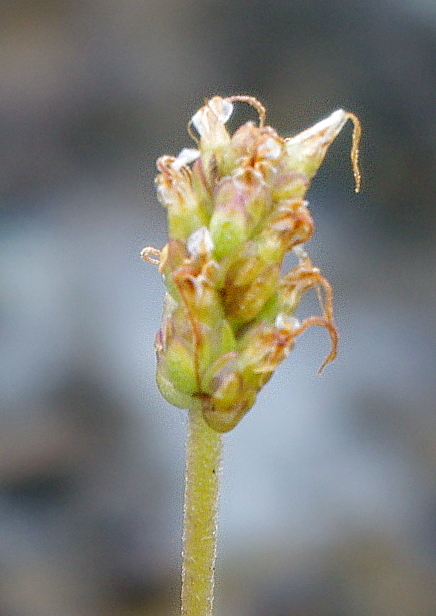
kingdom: Plantae
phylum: Tracheophyta
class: Magnoliopsida
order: Lamiales
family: Plantaginaceae
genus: Plantago
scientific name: Plantago maritima
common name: Sea plantain
